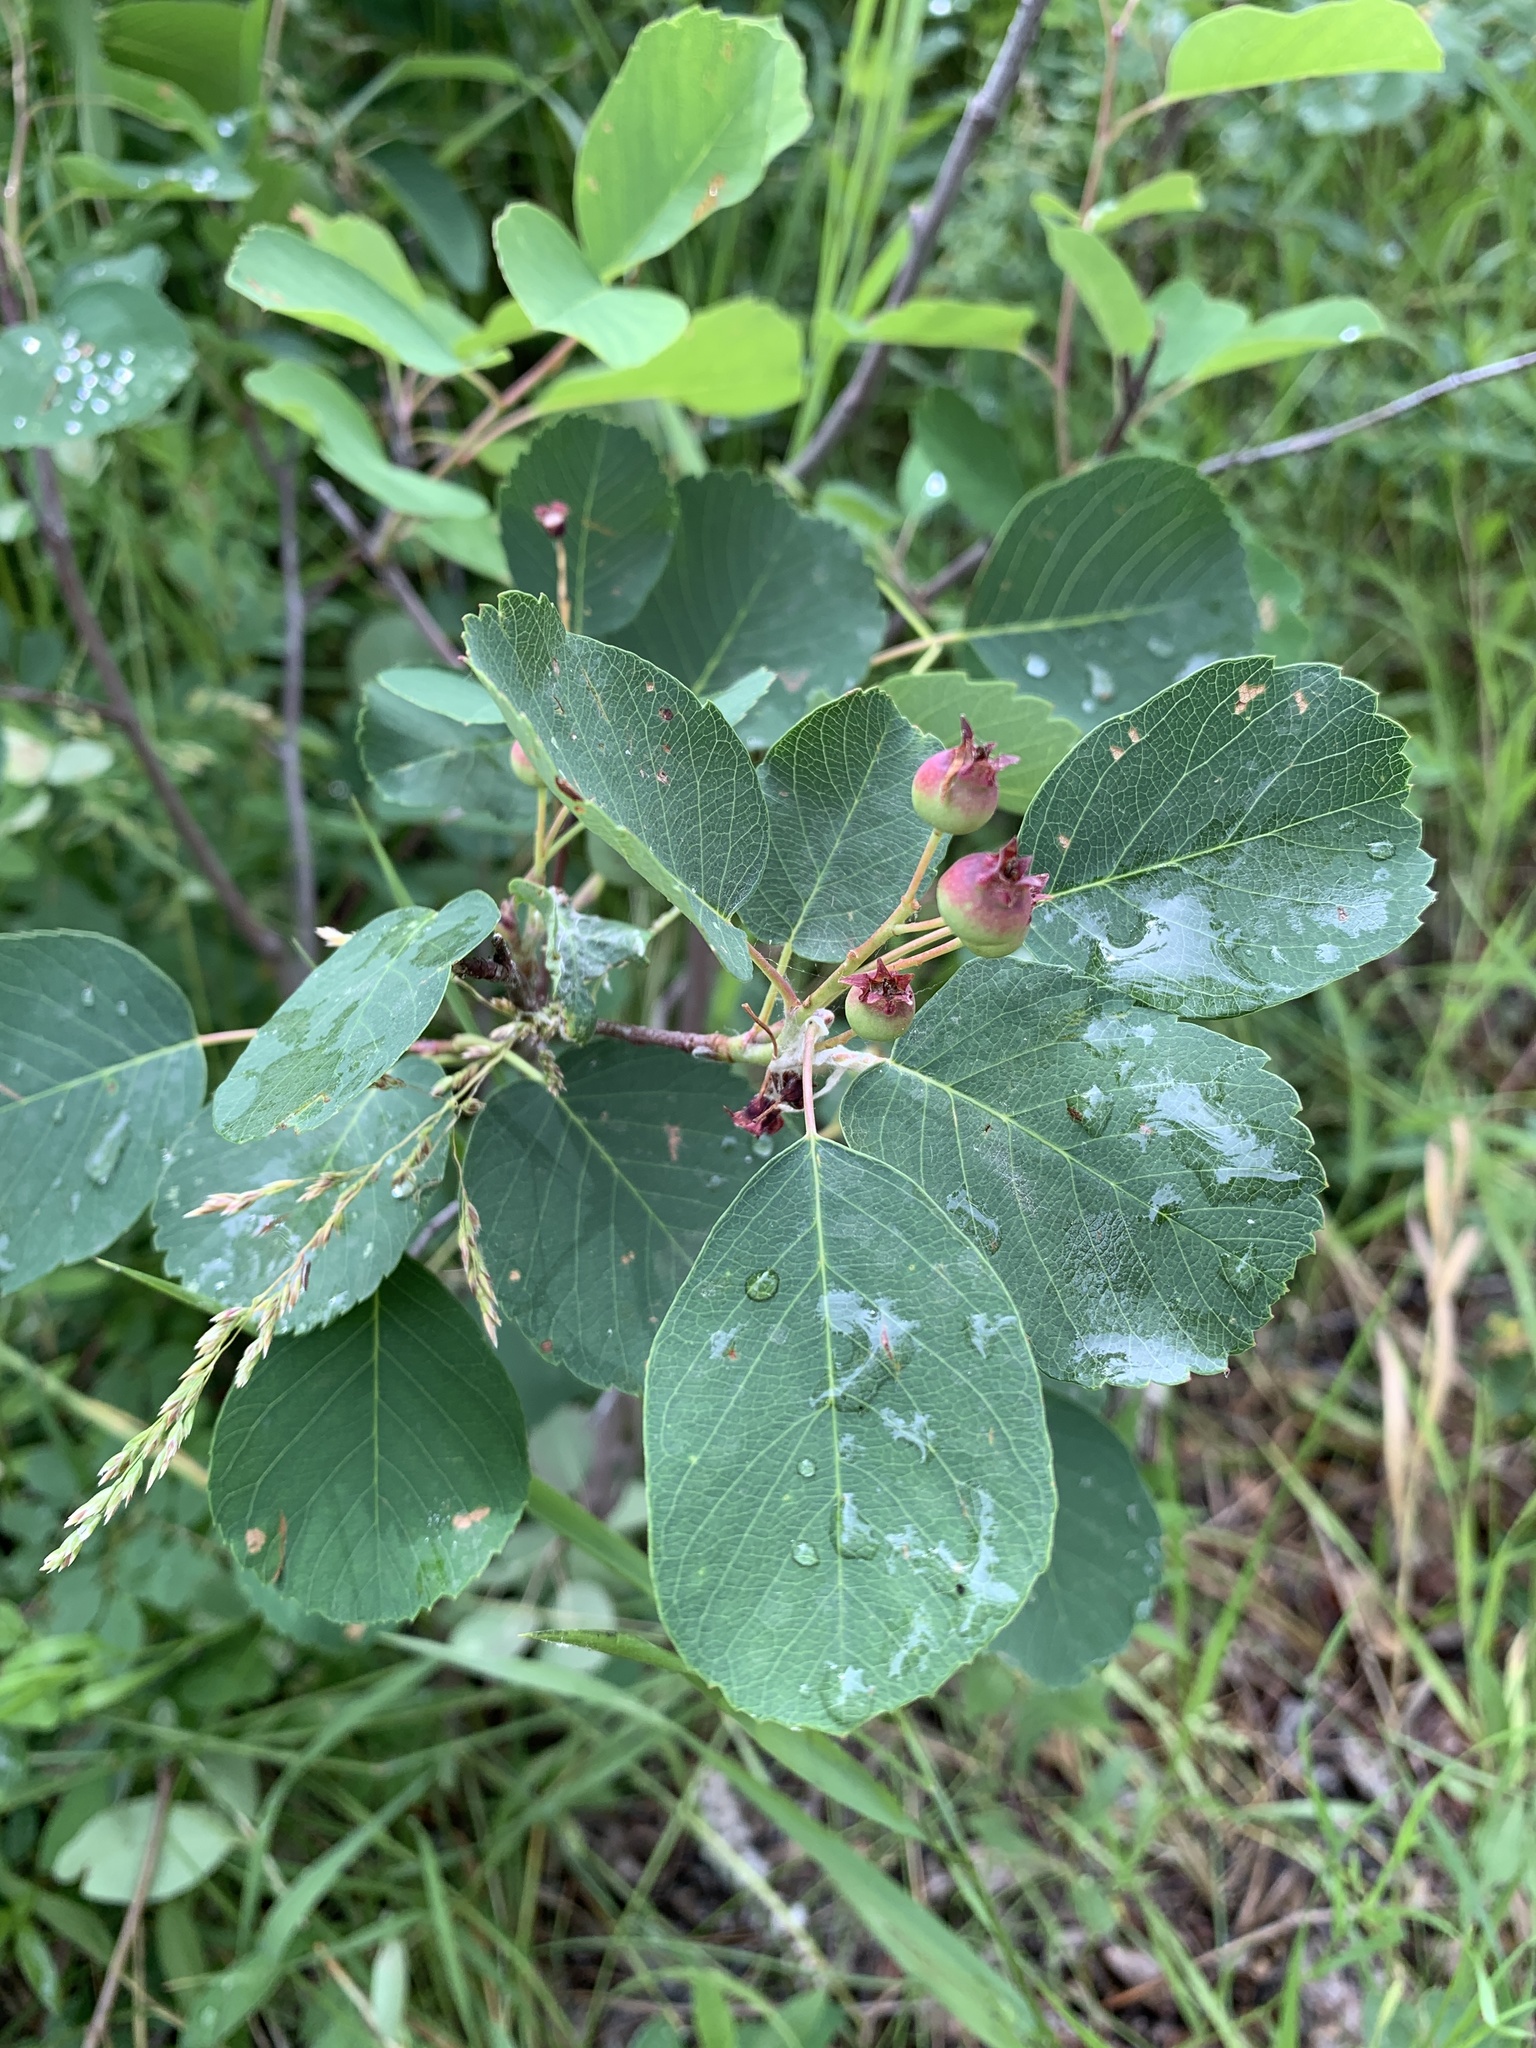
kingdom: Plantae
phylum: Tracheophyta
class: Magnoliopsida
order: Rosales
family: Rosaceae
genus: Amelanchier
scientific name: Amelanchier alnifolia
